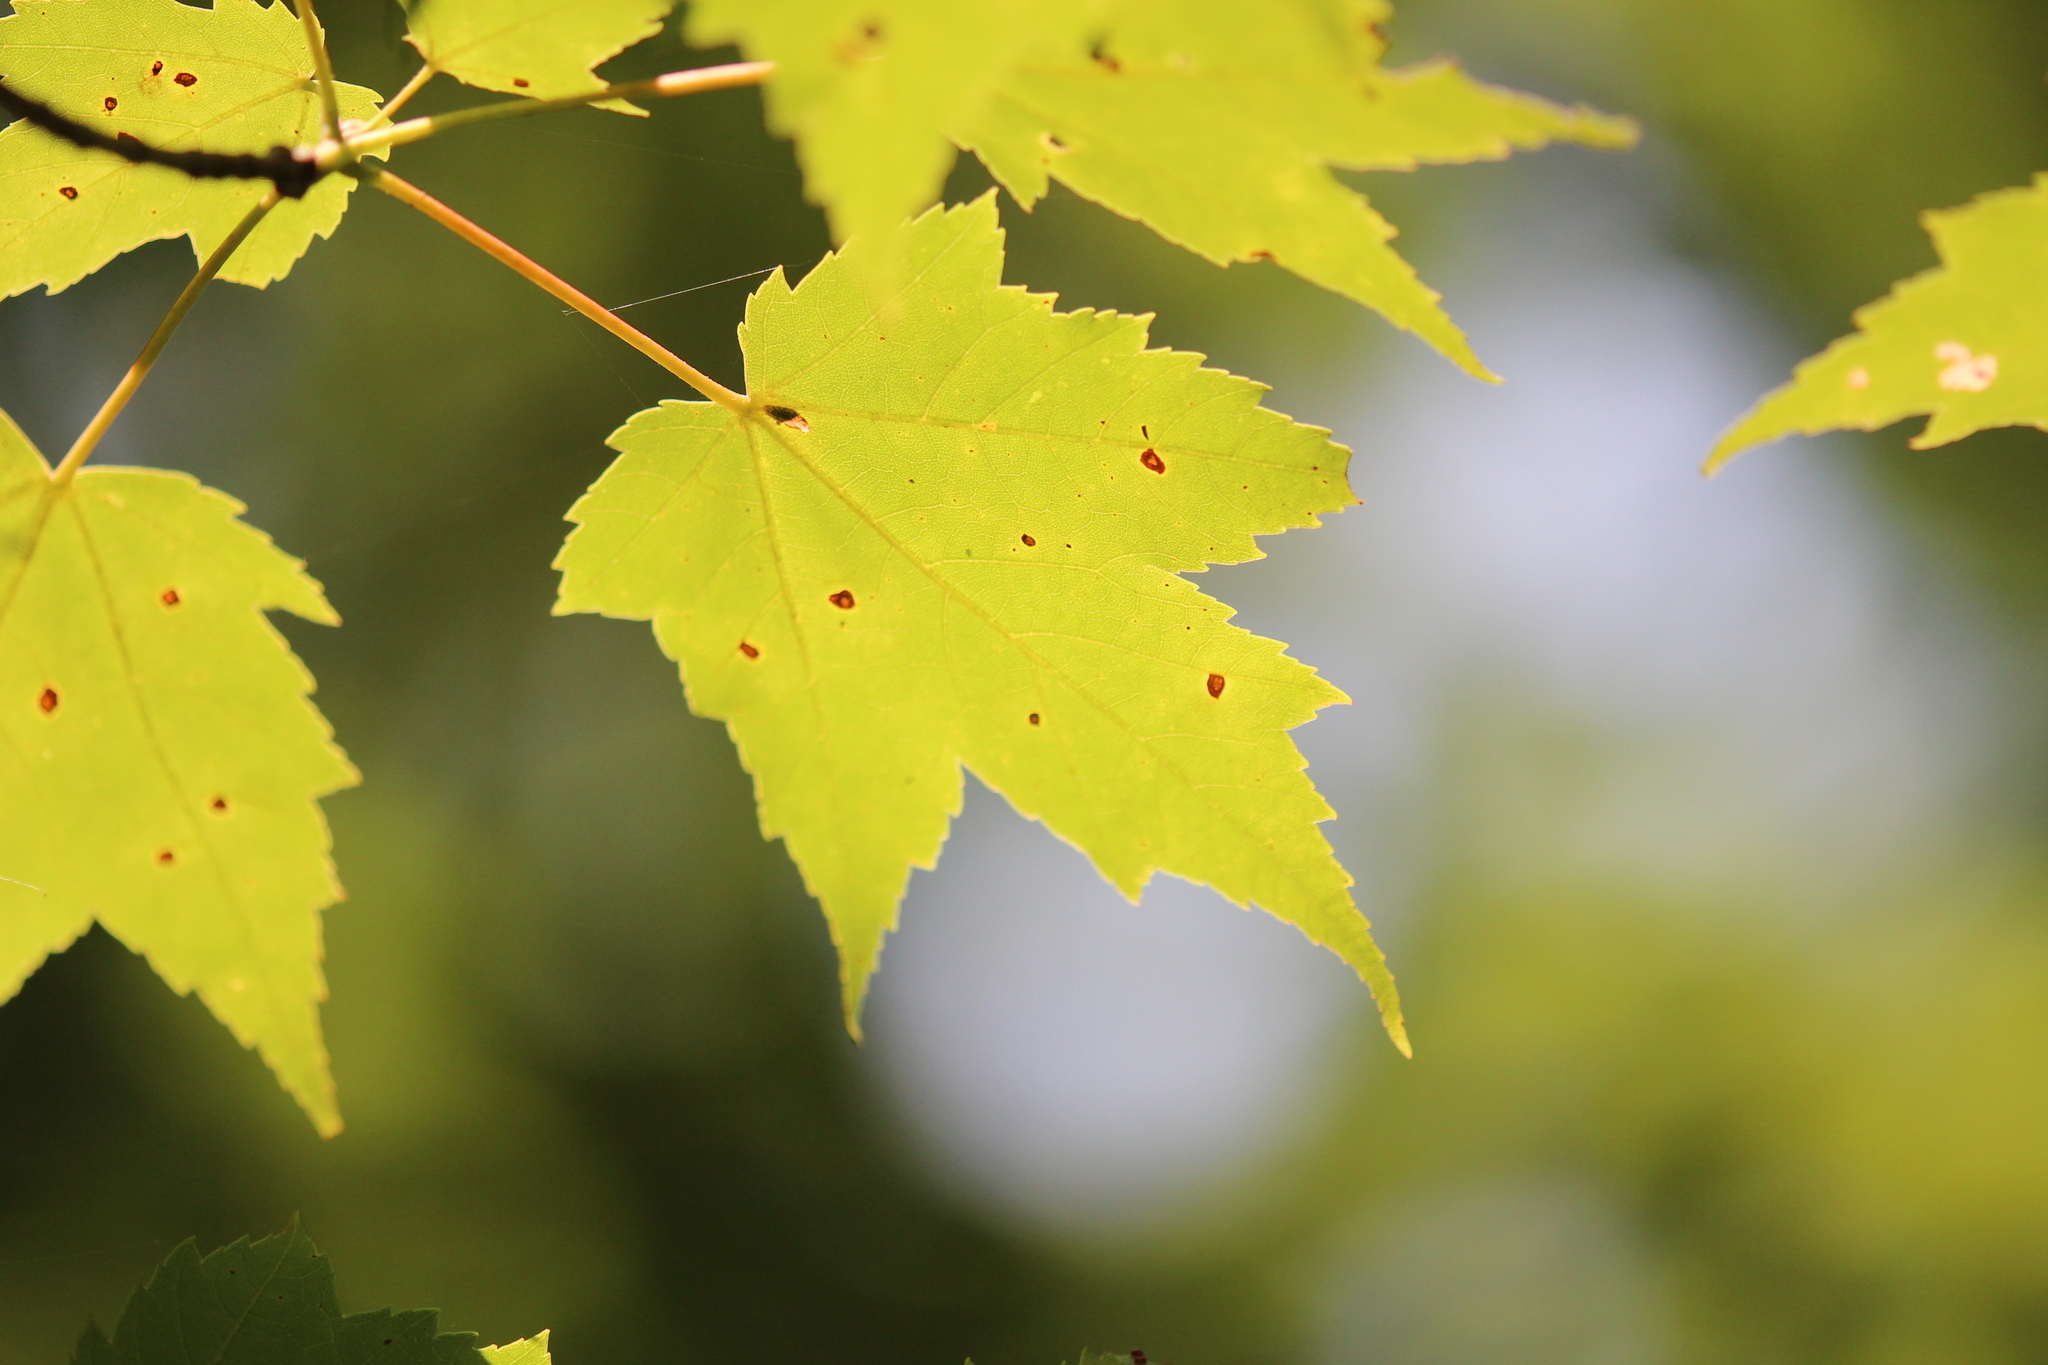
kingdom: Plantae
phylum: Tracheophyta
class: Magnoliopsida
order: Sapindales
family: Sapindaceae
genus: Acer
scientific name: Acer rubrum
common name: Red maple
